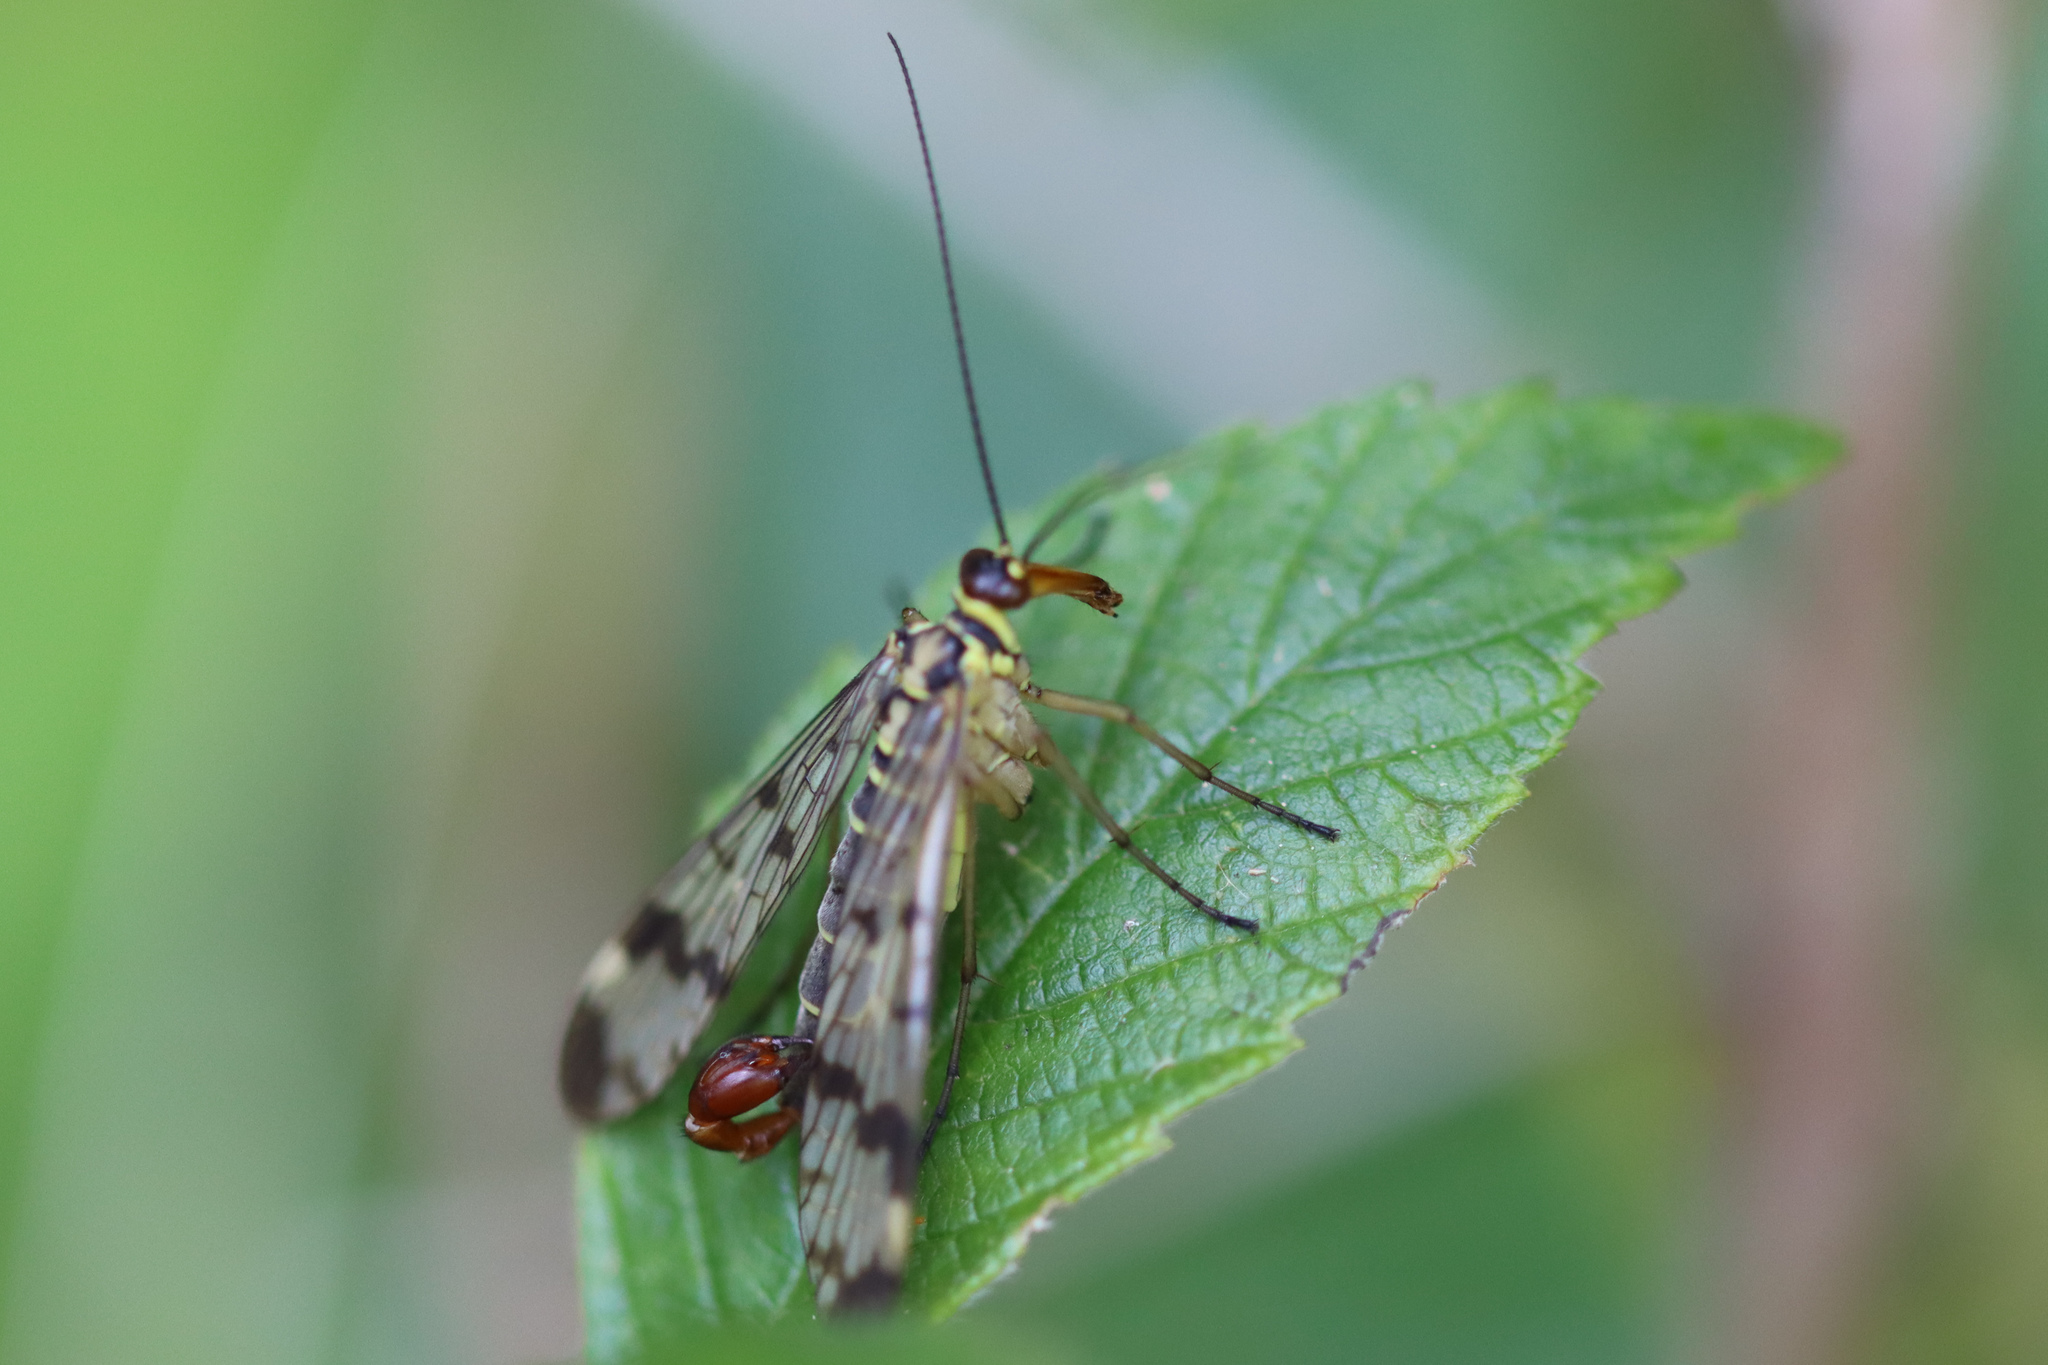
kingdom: Animalia
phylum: Arthropoda
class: Insecta
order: Mecoptera
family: Panorpidae
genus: Panorpa
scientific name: Panorpa communis
